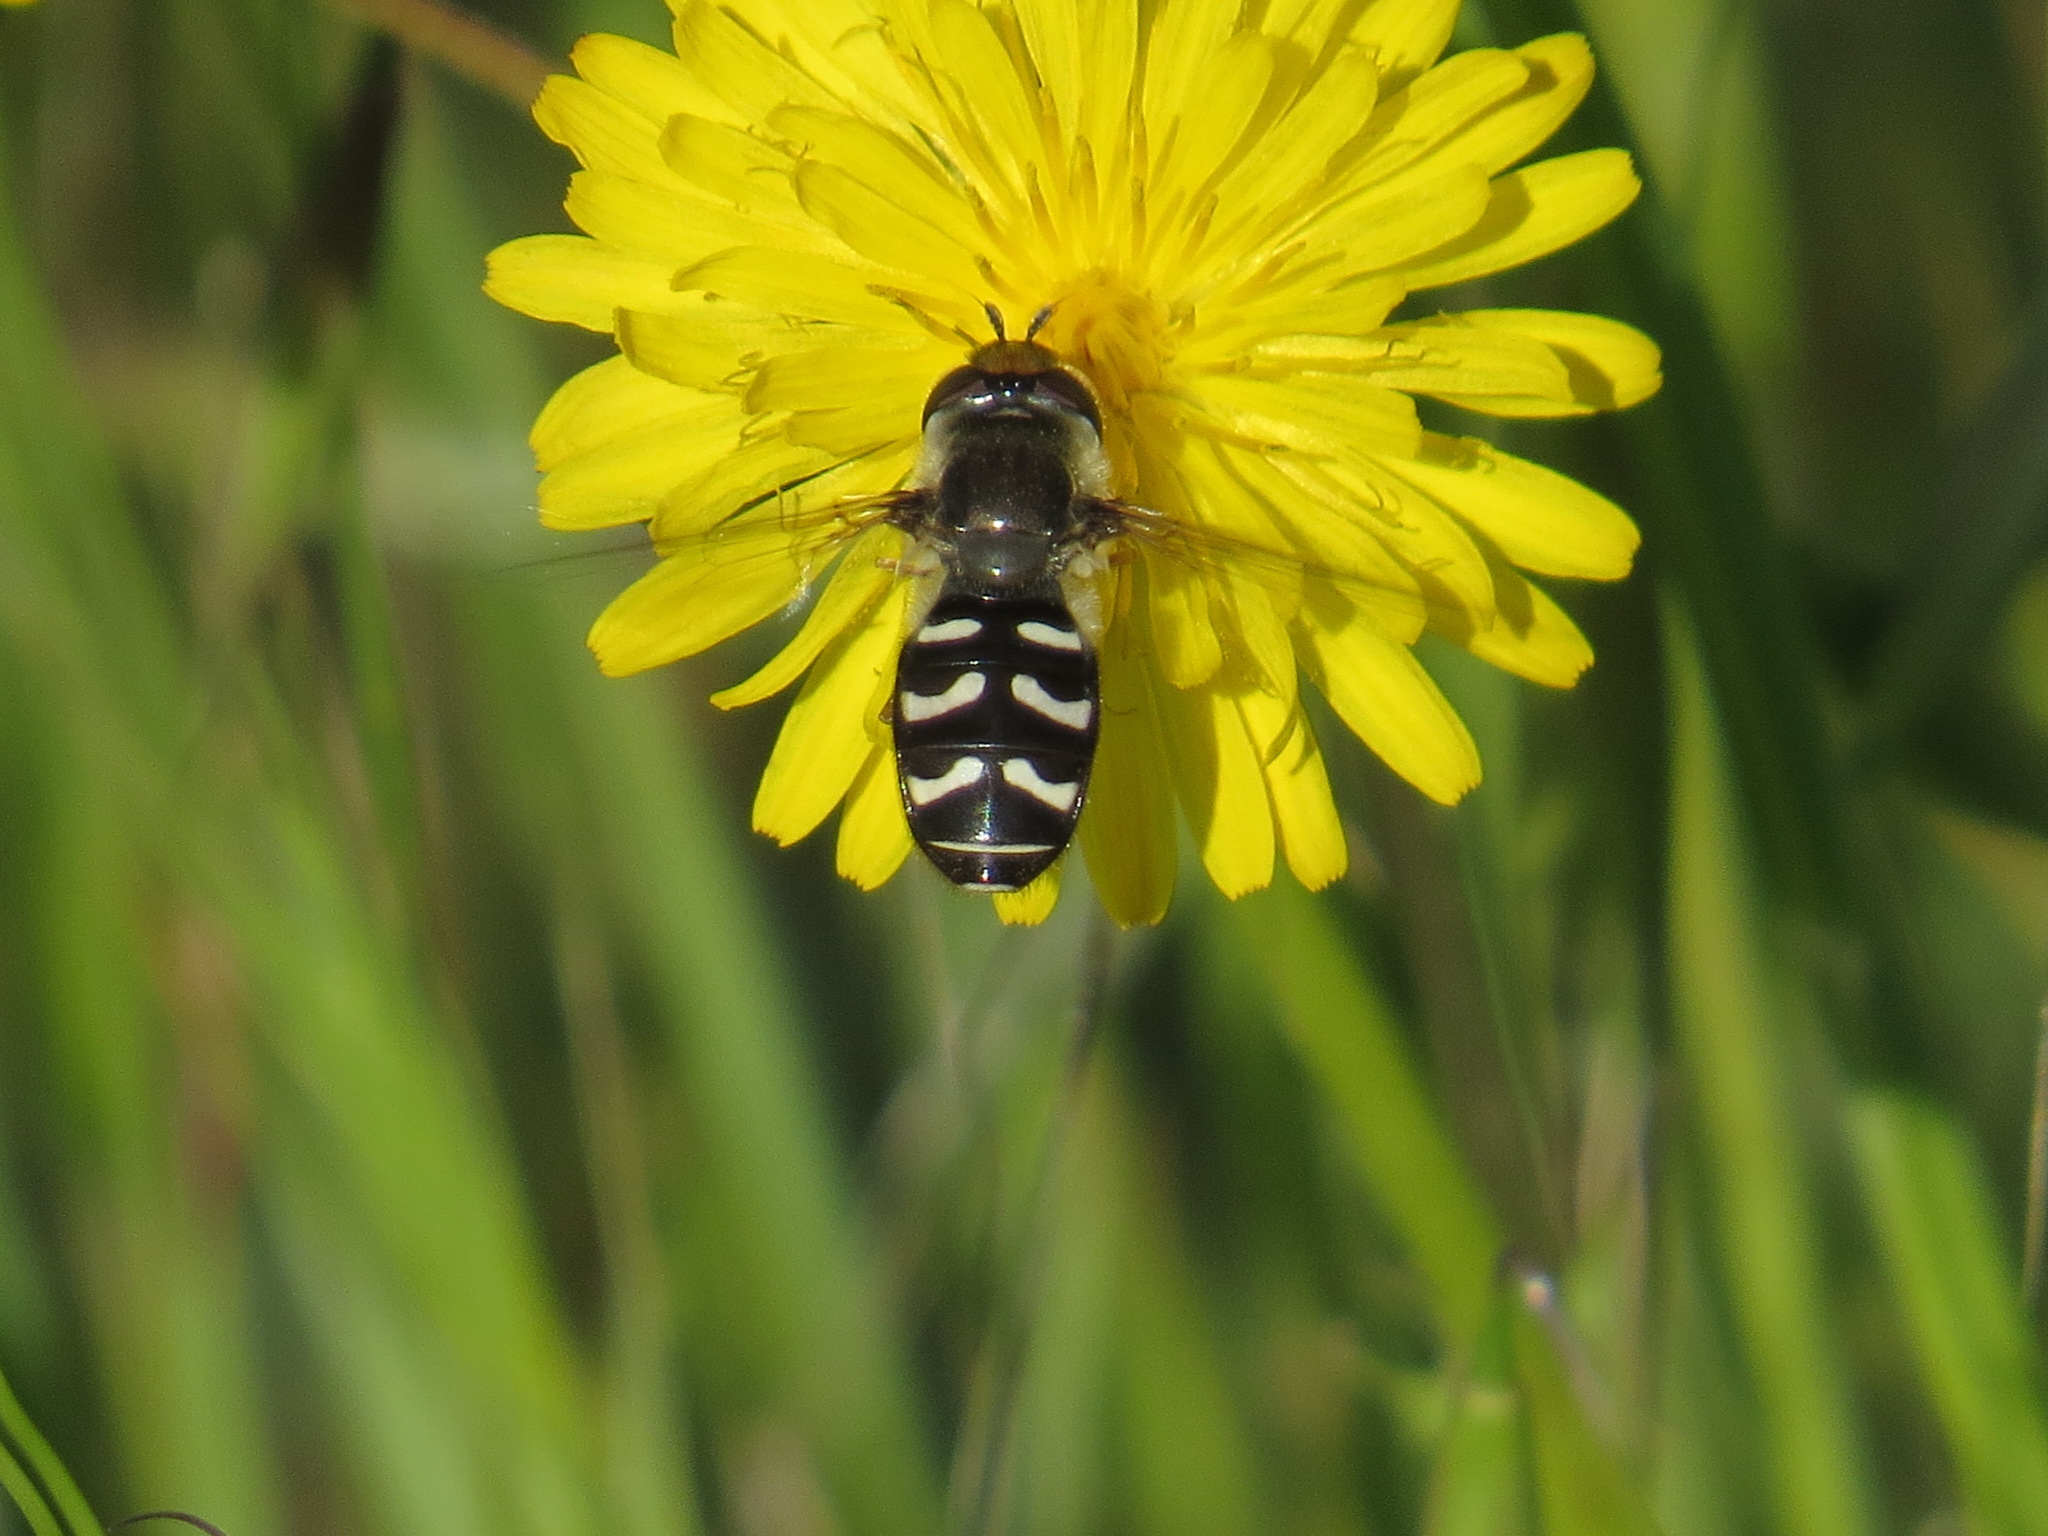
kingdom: Animalia
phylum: Arthropoda
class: Insecta
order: Diptera
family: Syrphidae
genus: Scaeva
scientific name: Scaeva affinis
